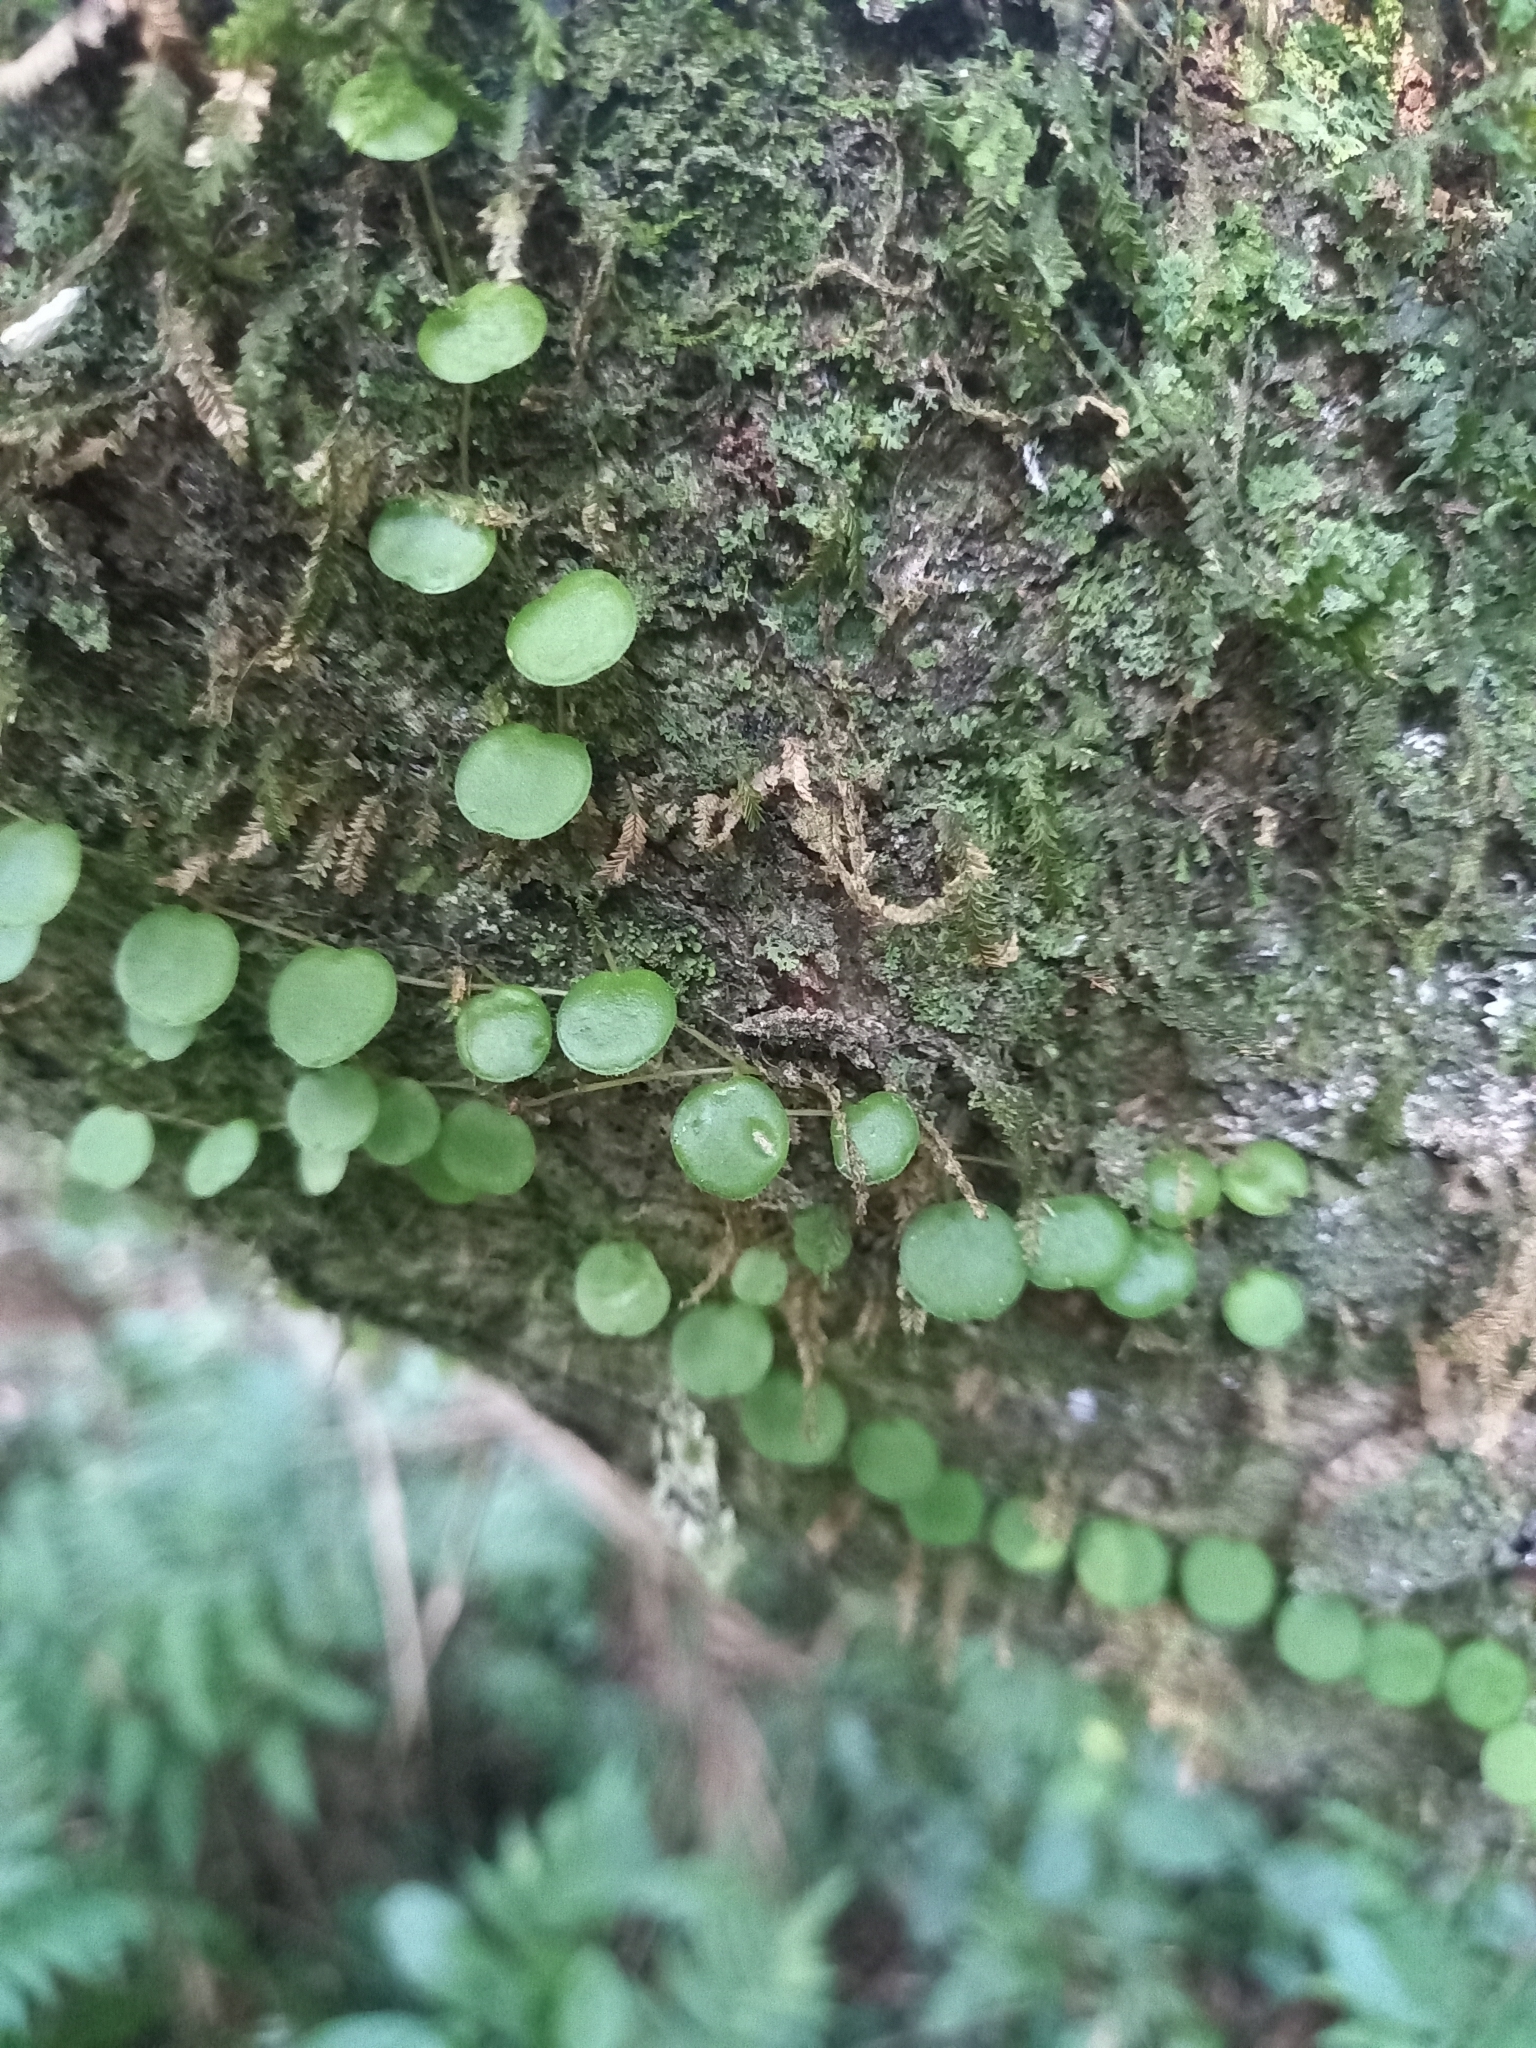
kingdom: Plantae
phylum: Tracheophyta
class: Magnoliopsida
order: Piperales
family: Piperaceae
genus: Peperomia
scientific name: Peperomia rotundifolia
